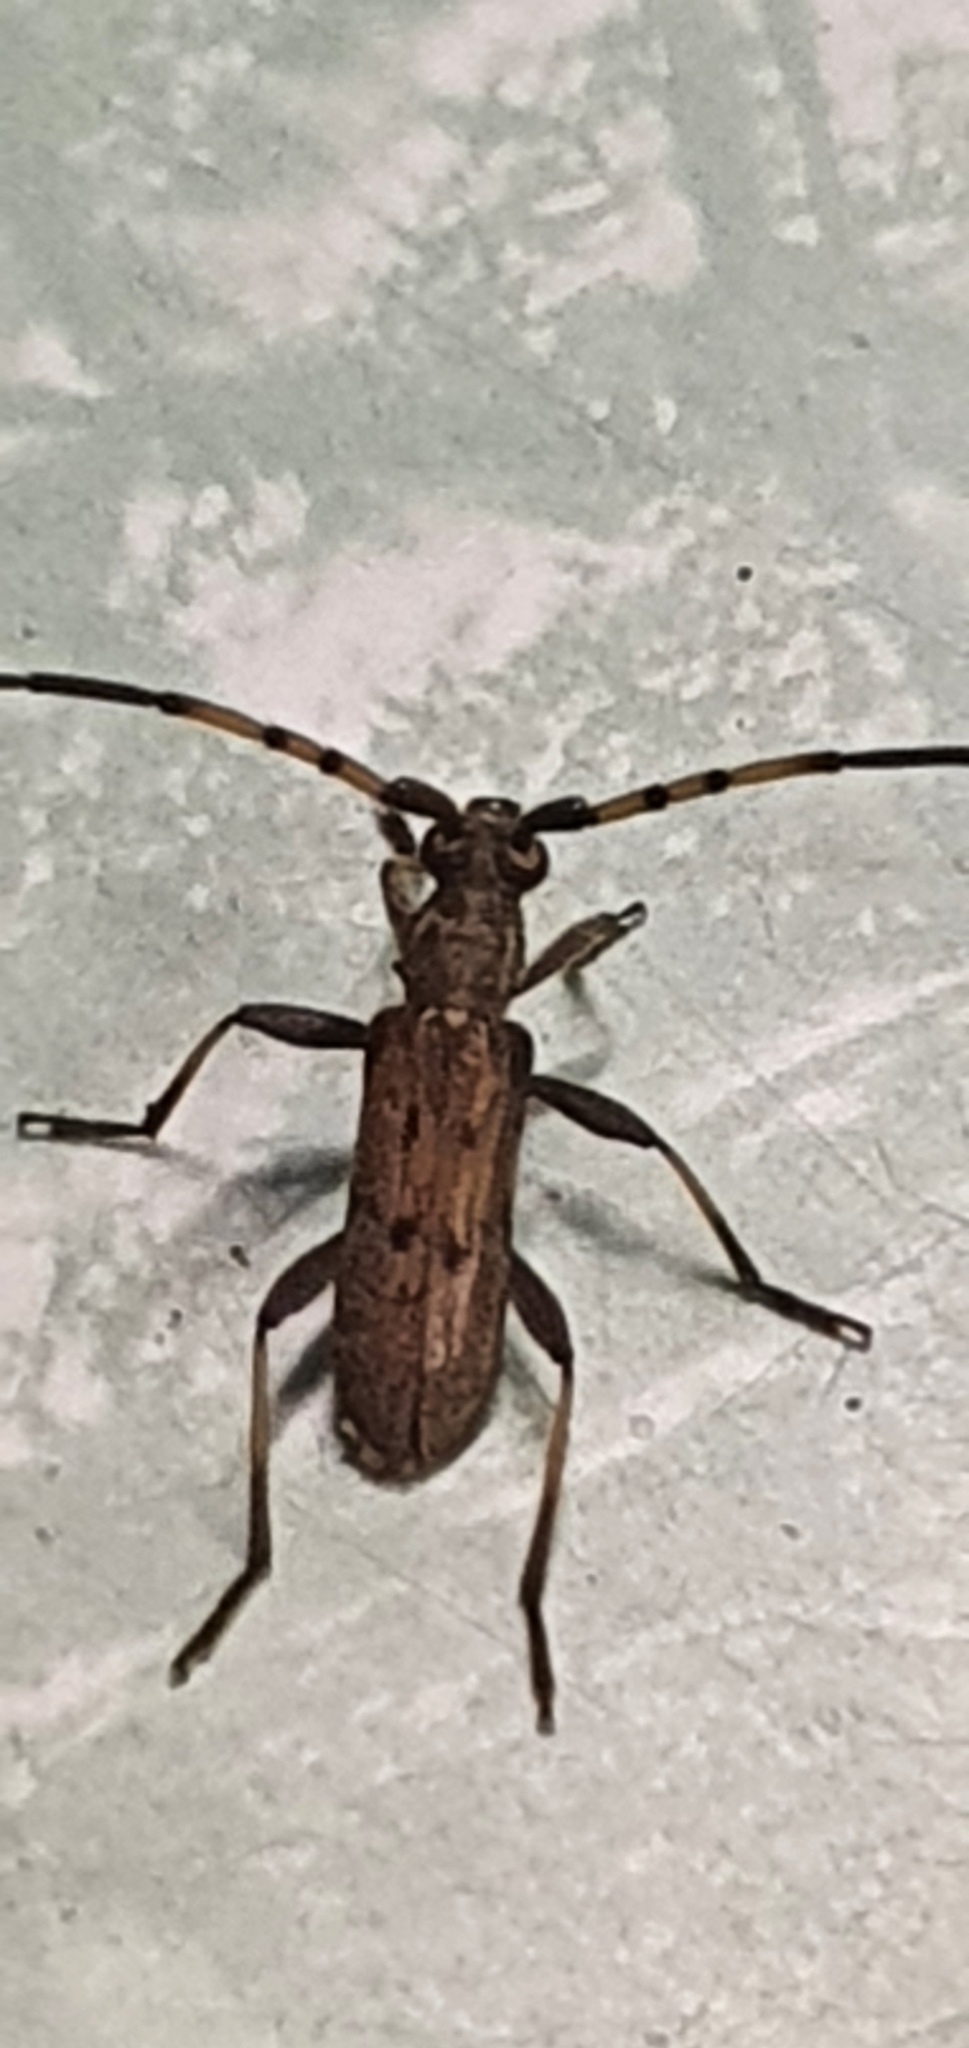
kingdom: Animalia
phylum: Arthropoda
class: Insecta
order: Coleoptera
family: Cerambycidae
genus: Didymocantha
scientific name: Didymocantha obliqua
